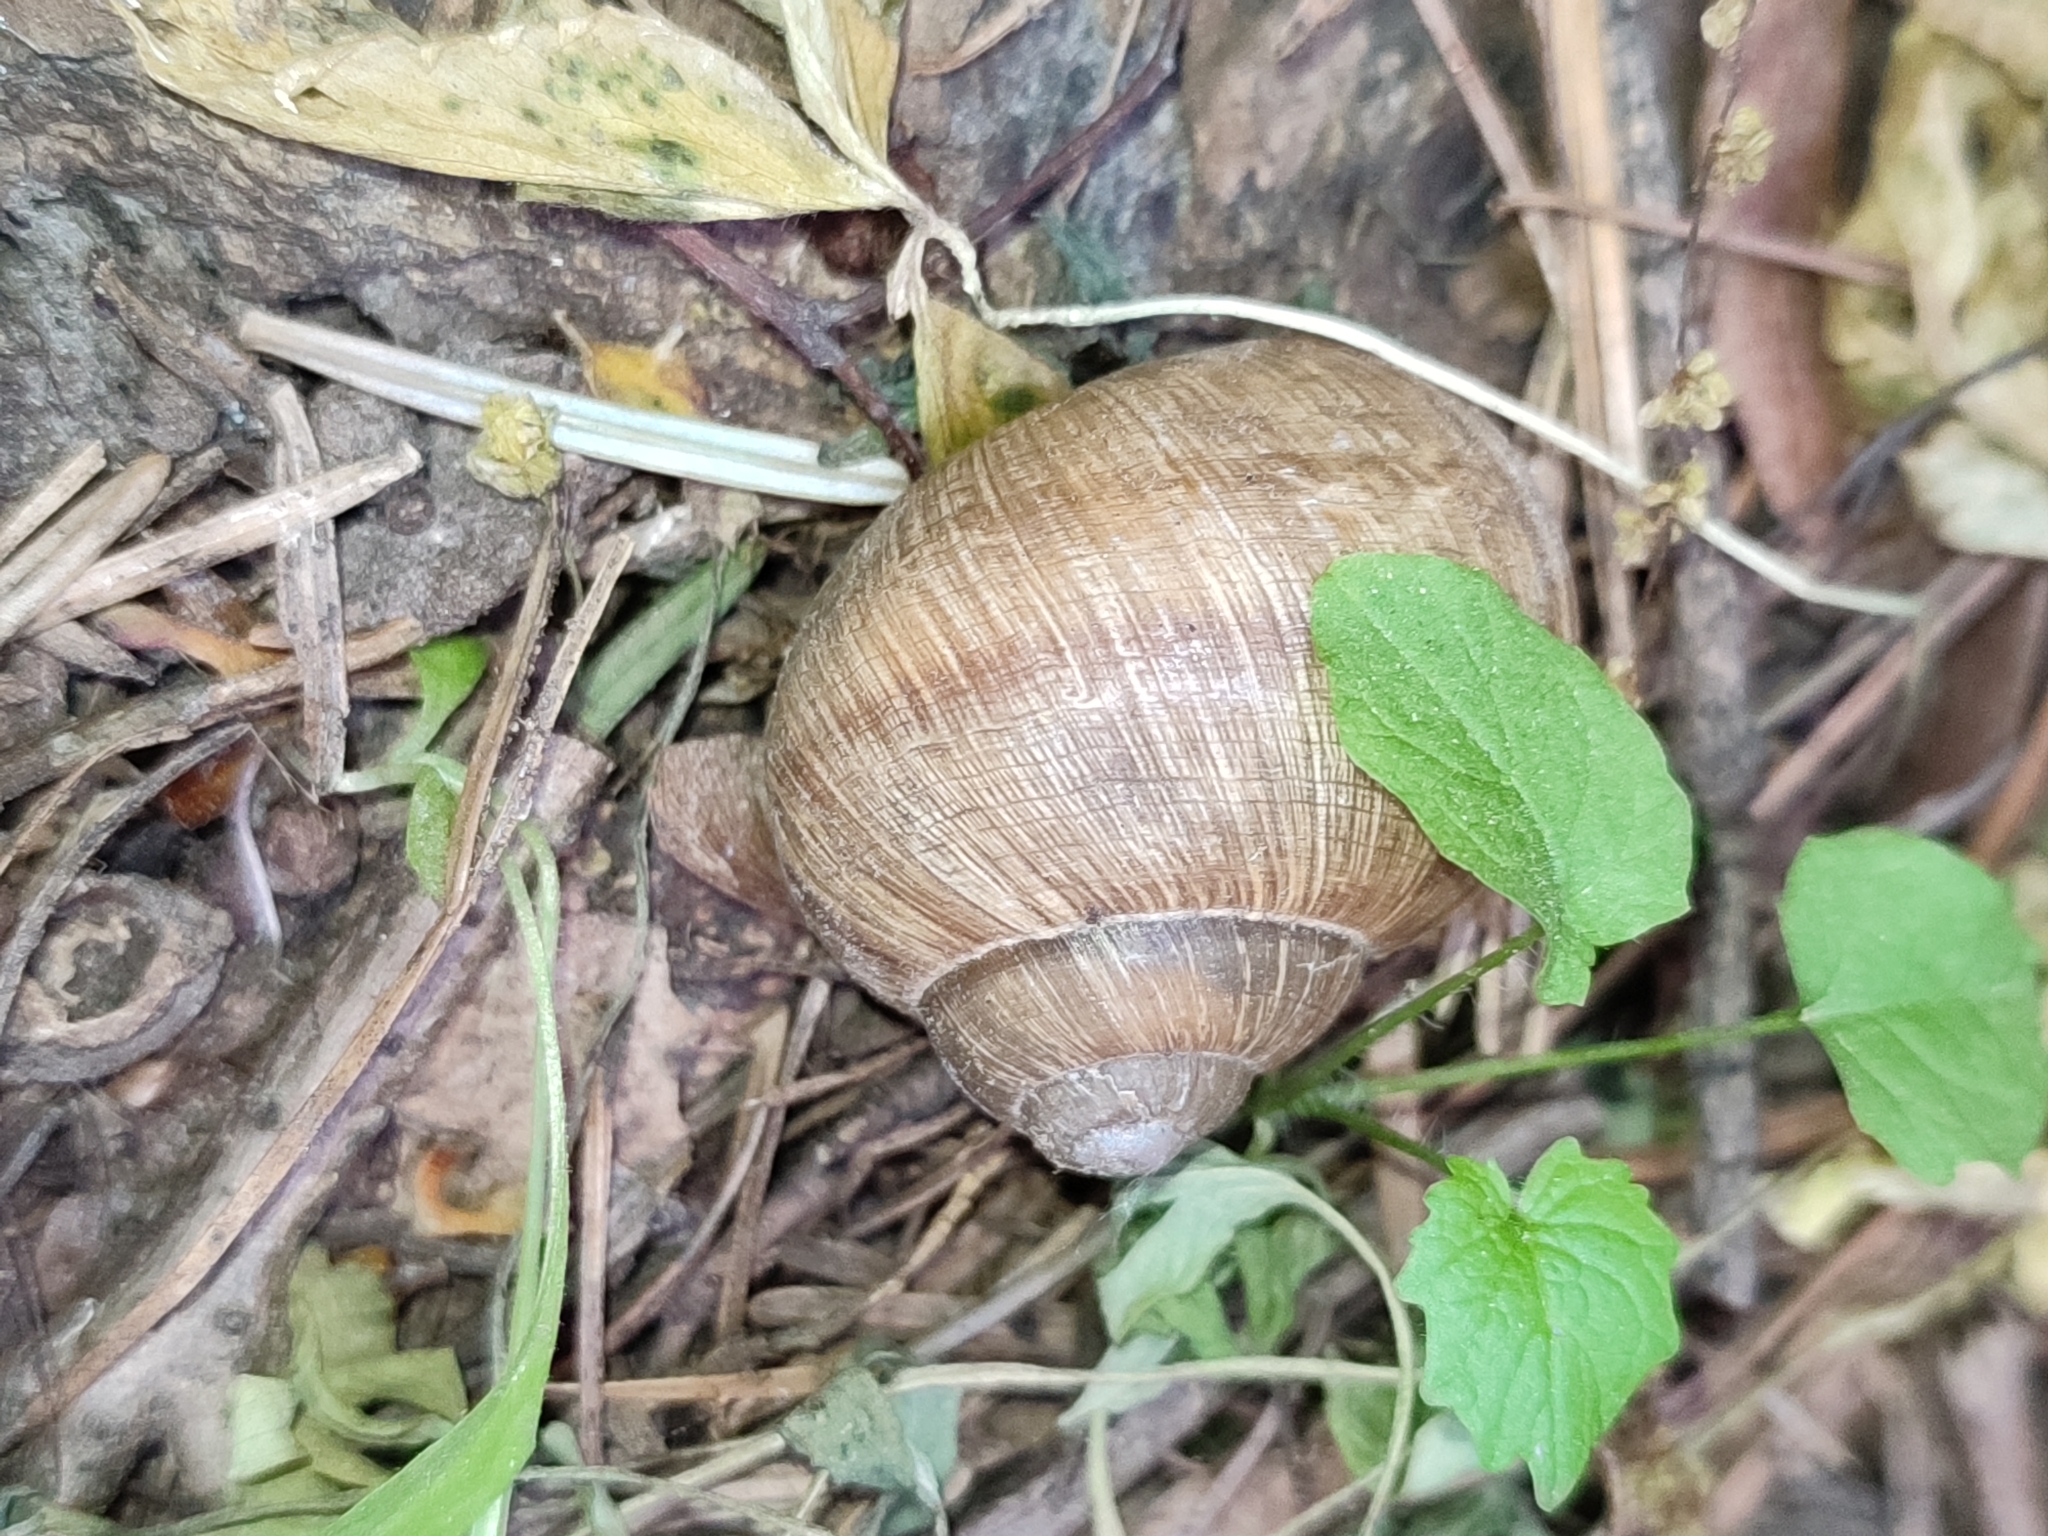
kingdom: Animalia
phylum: Mollusca
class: Gastropoda
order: Stylommatophora
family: Helicidae
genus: Helix
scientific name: Helix pomatia
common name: Roman snail
